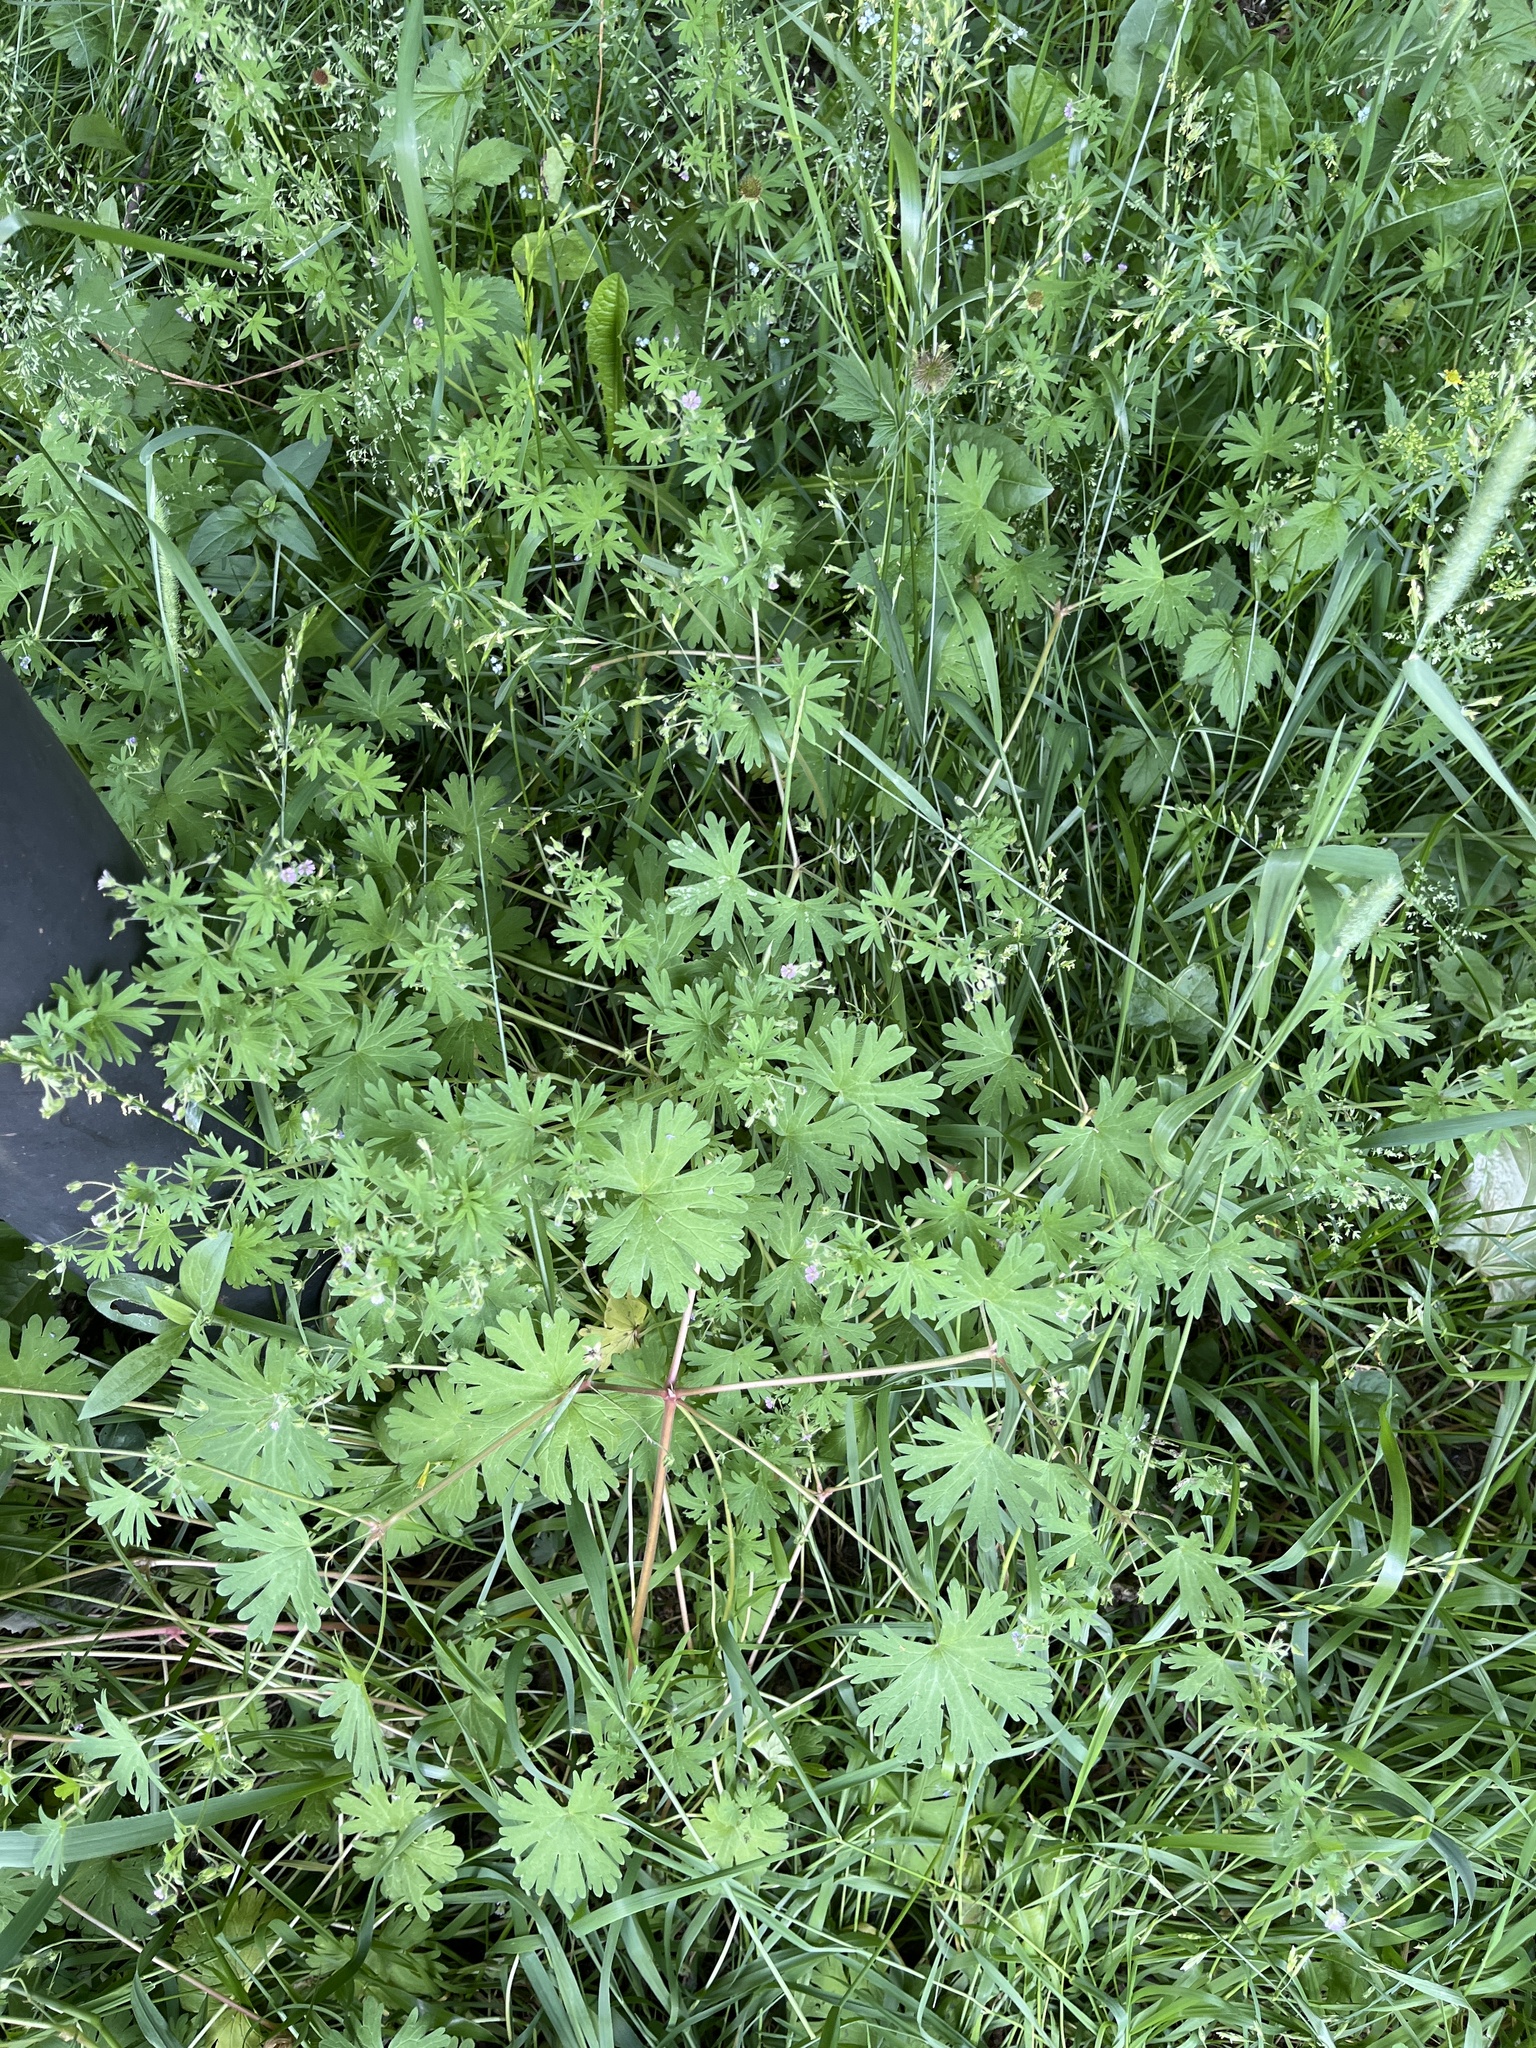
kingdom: Plantae
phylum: Tracheophyta
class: Magnoliopsida
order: Geraniales
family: Geraniaceae
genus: Geranium
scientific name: Geranium pusillum
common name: Small geranium
